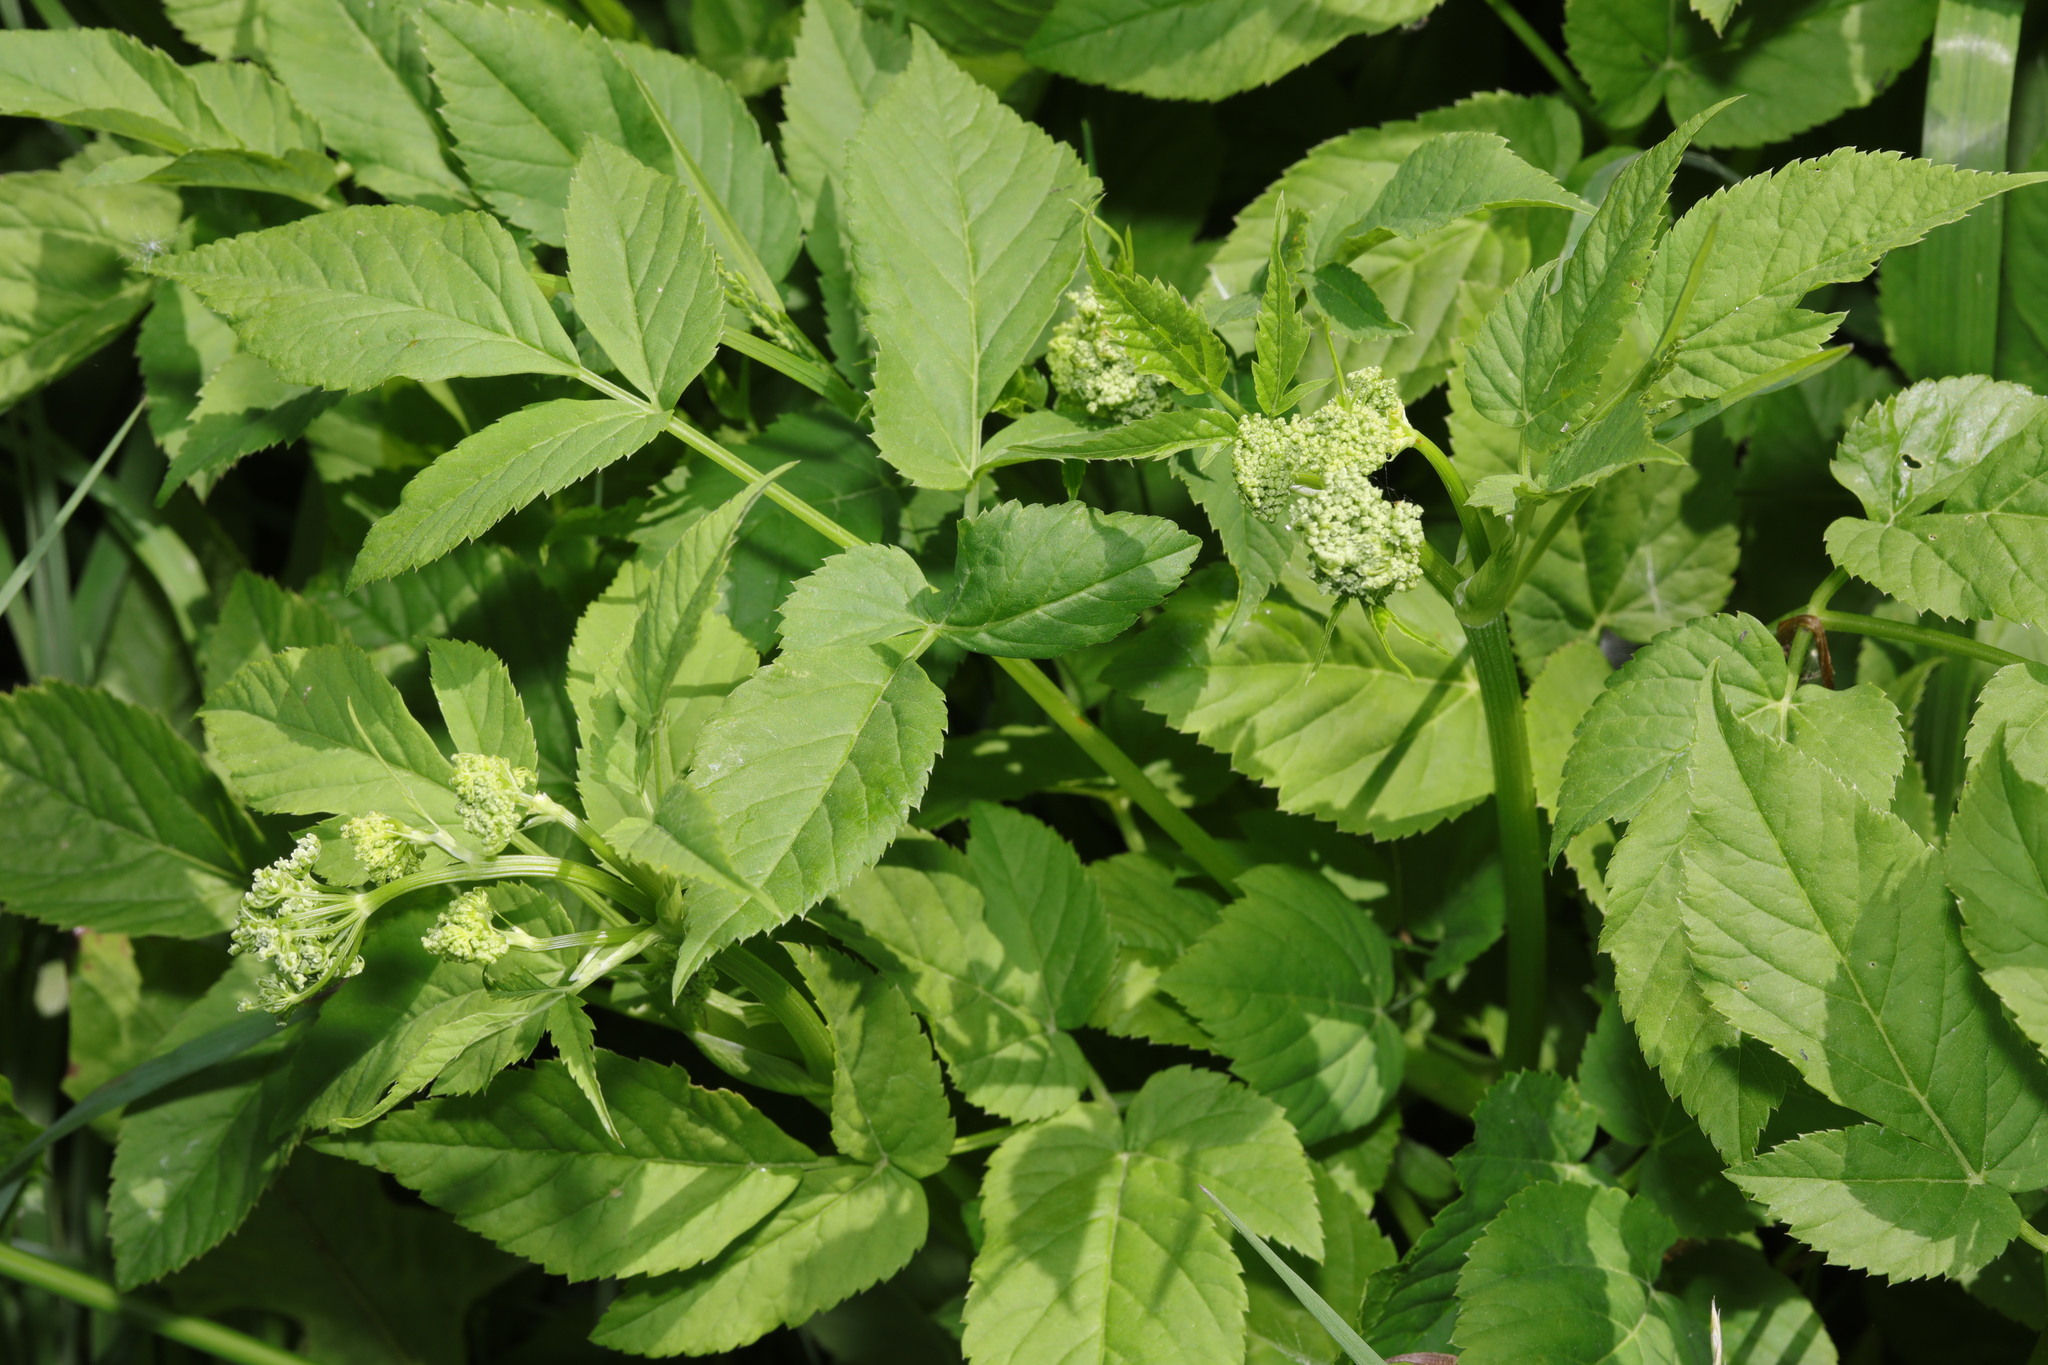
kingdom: Plantae
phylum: Tracheophyta
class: Magnoliopsida
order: Apiales
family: Apiaceae
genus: Aegopodium
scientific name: Aegopodium podagraria
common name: Ground-elder
